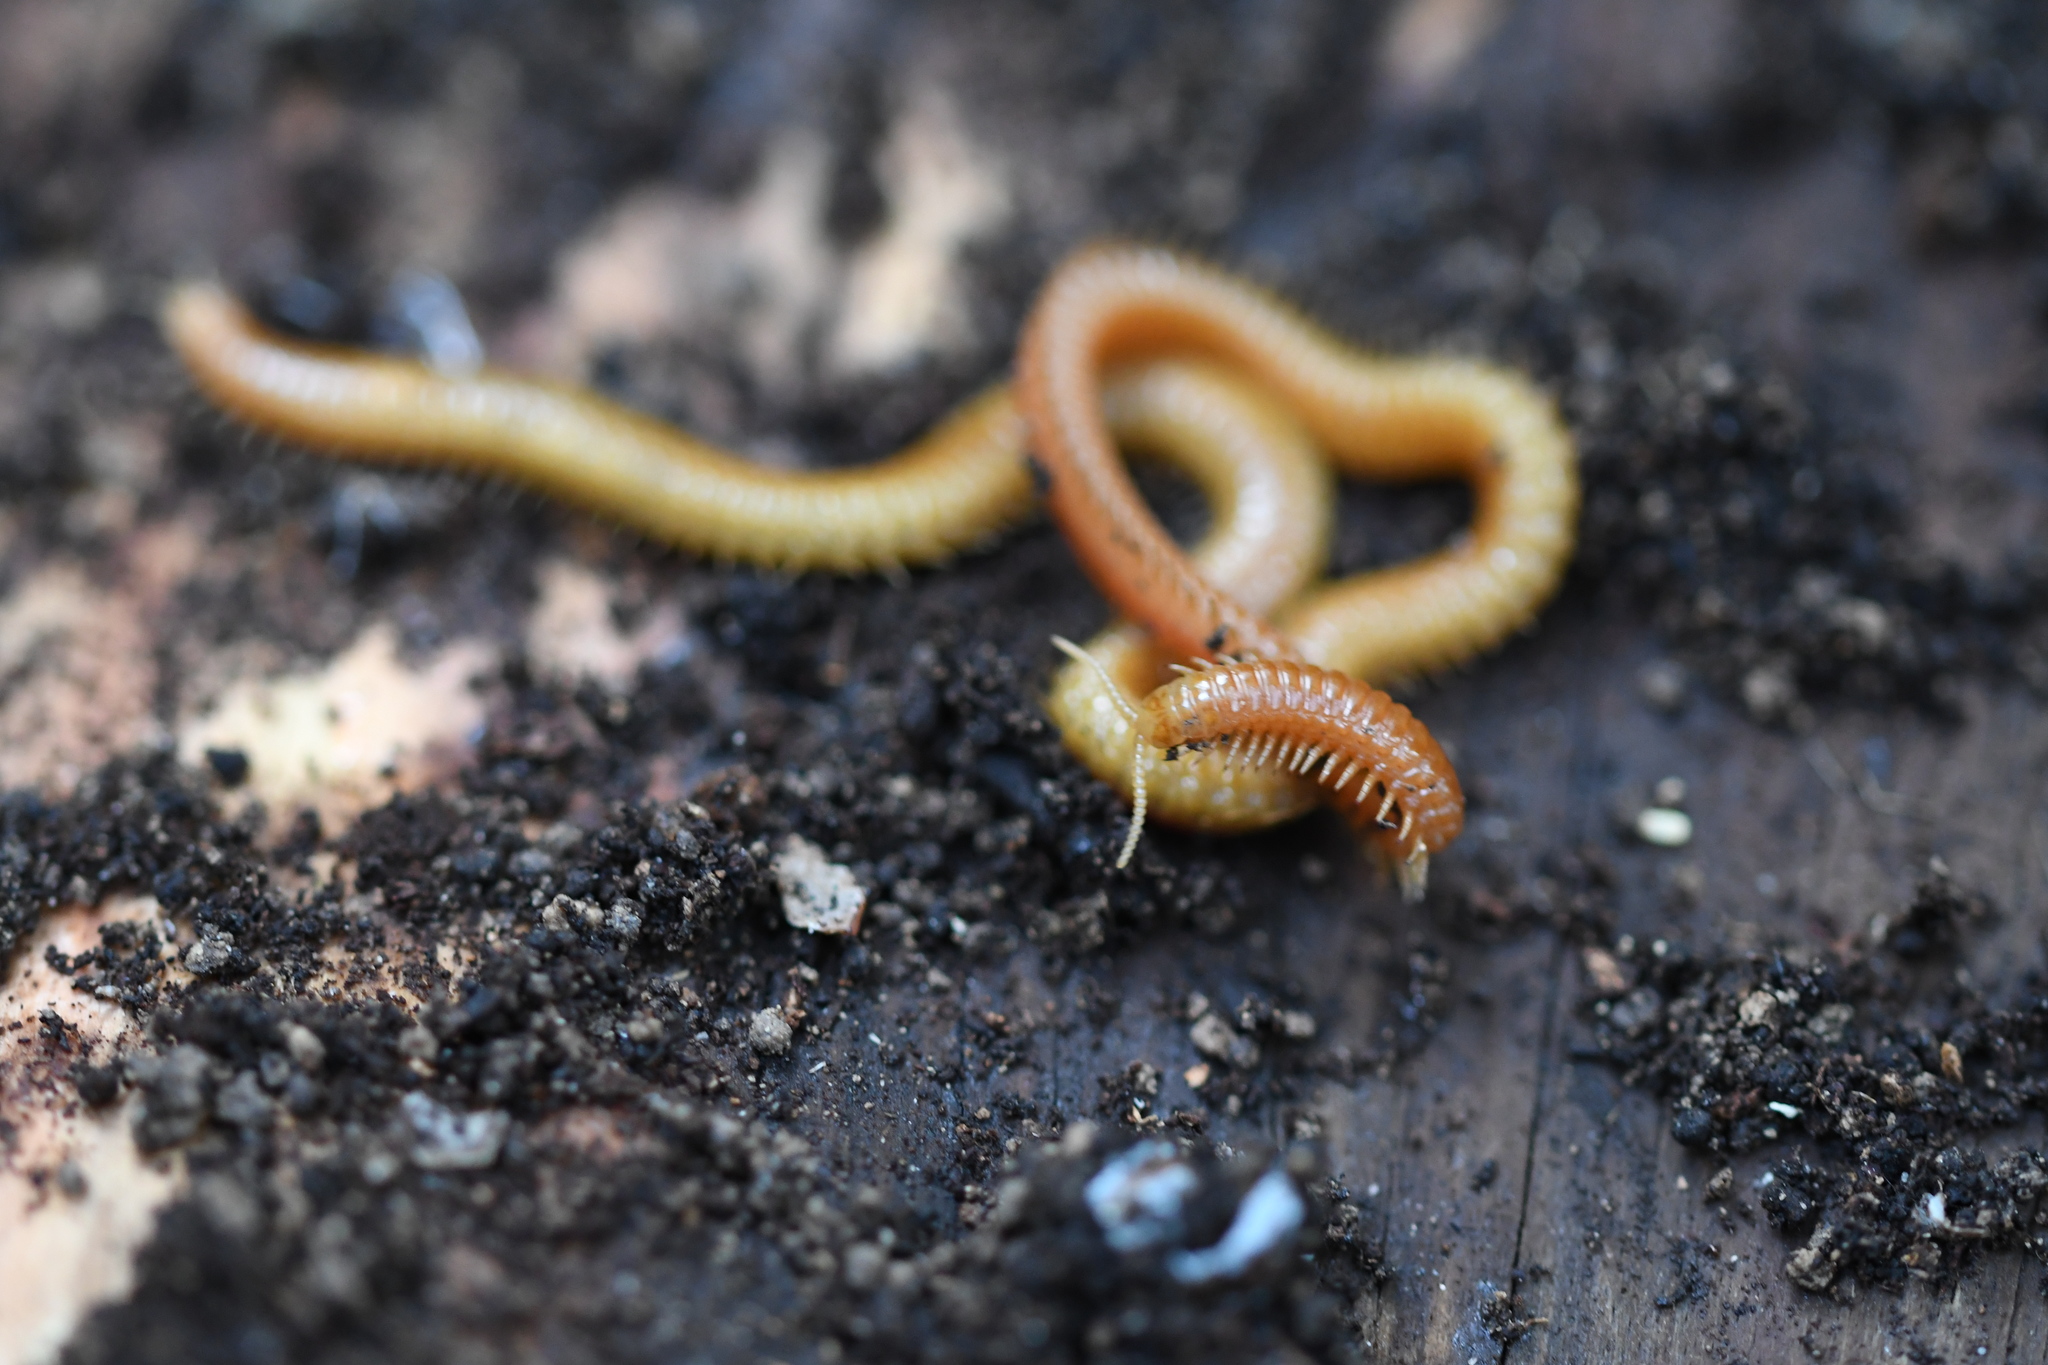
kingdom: Animalia
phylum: Arthropoda
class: Chilopoda
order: Geophilomorpha
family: Himantariidae
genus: Himantarium
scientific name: Himantarium gabrielis
